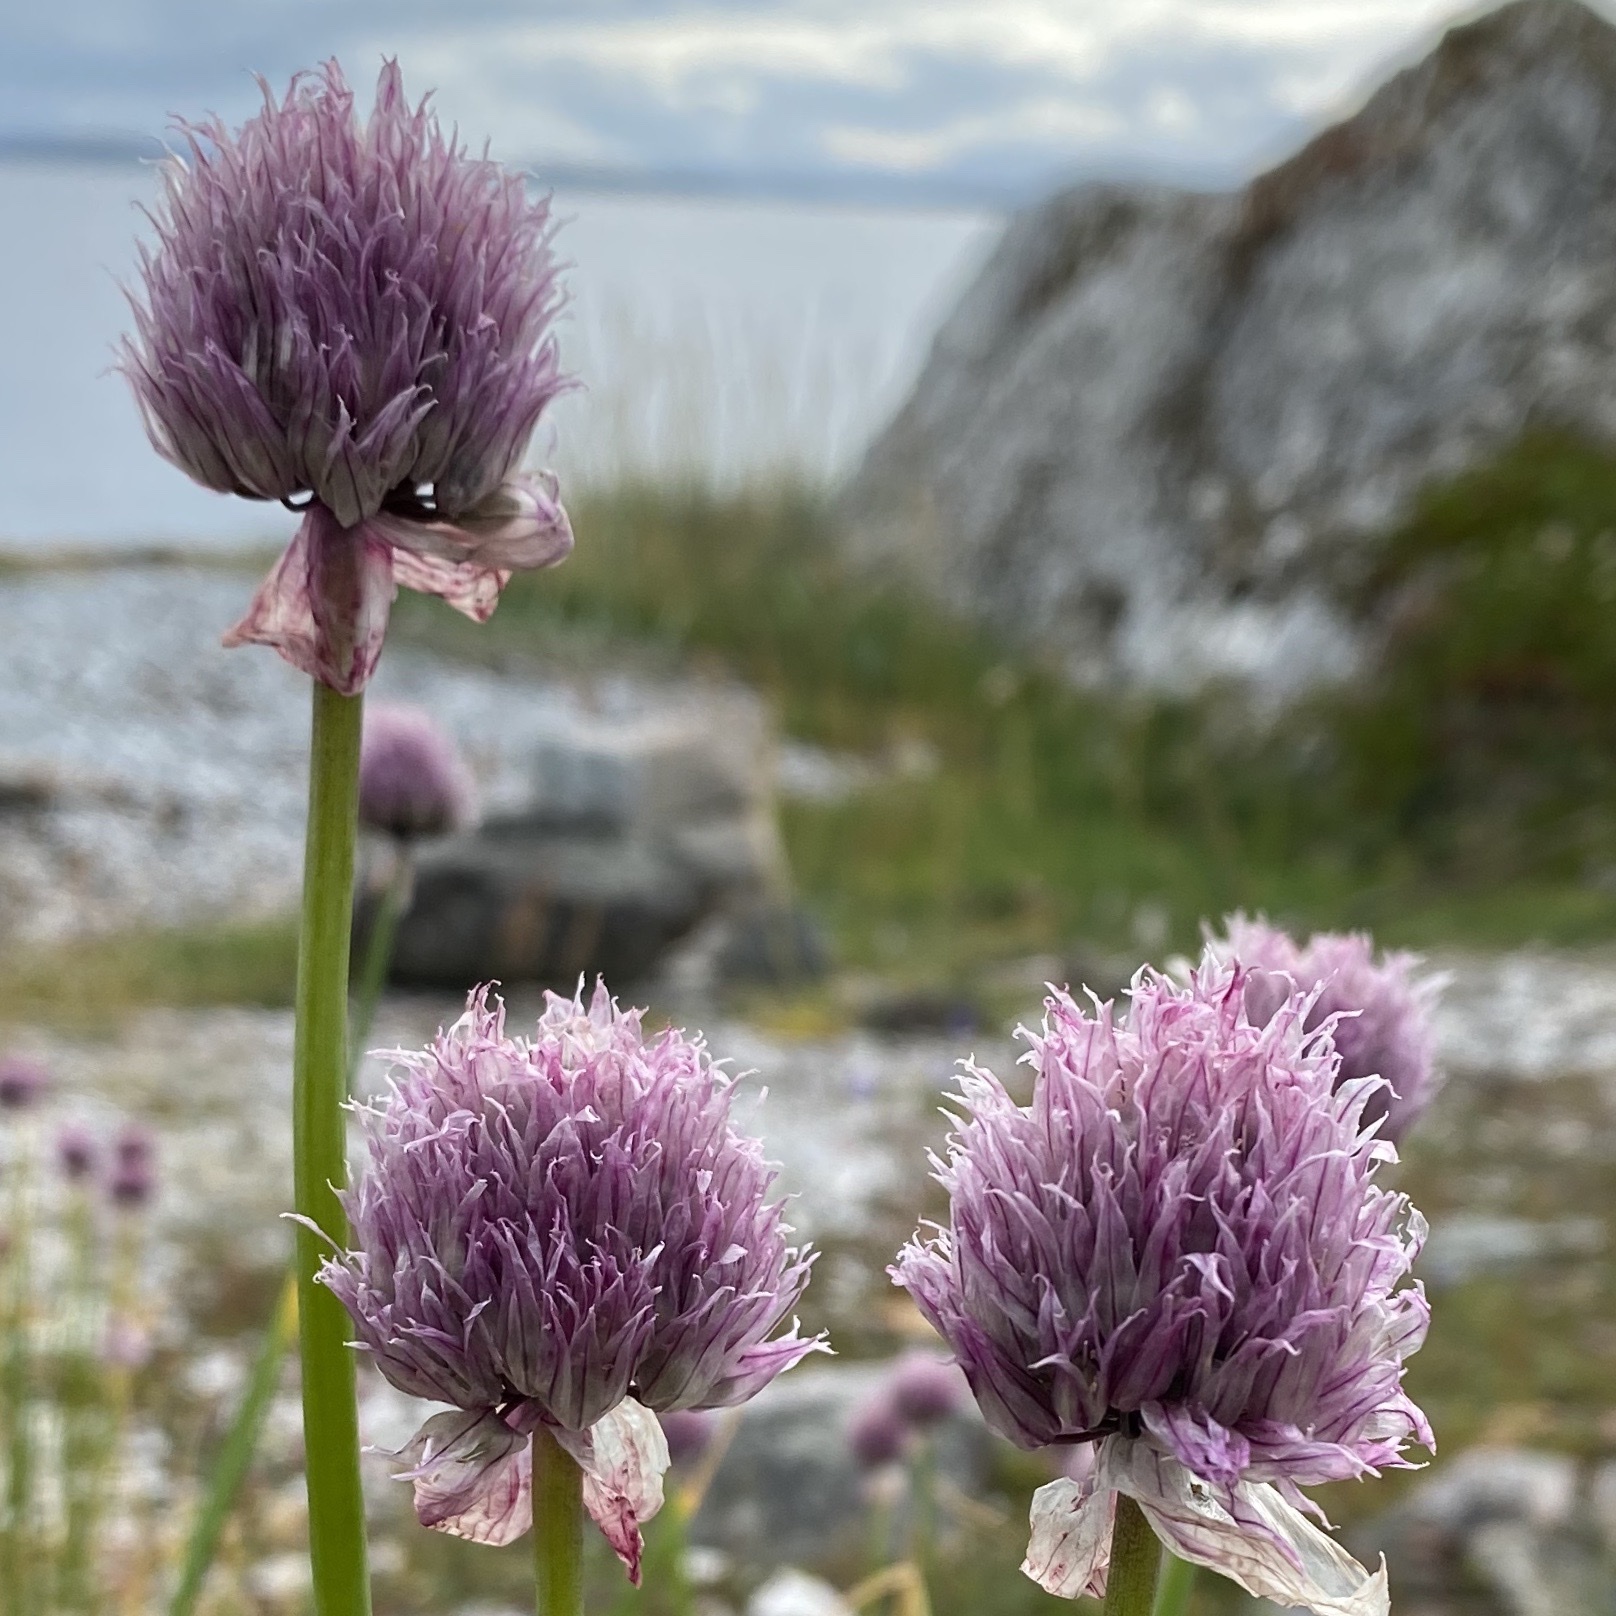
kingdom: Plantae
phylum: Tracheophyta
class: Liliopsida
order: Asparagales
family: Amaryllidaceae
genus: Allium
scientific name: Allium schoenoprasum
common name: Chives
